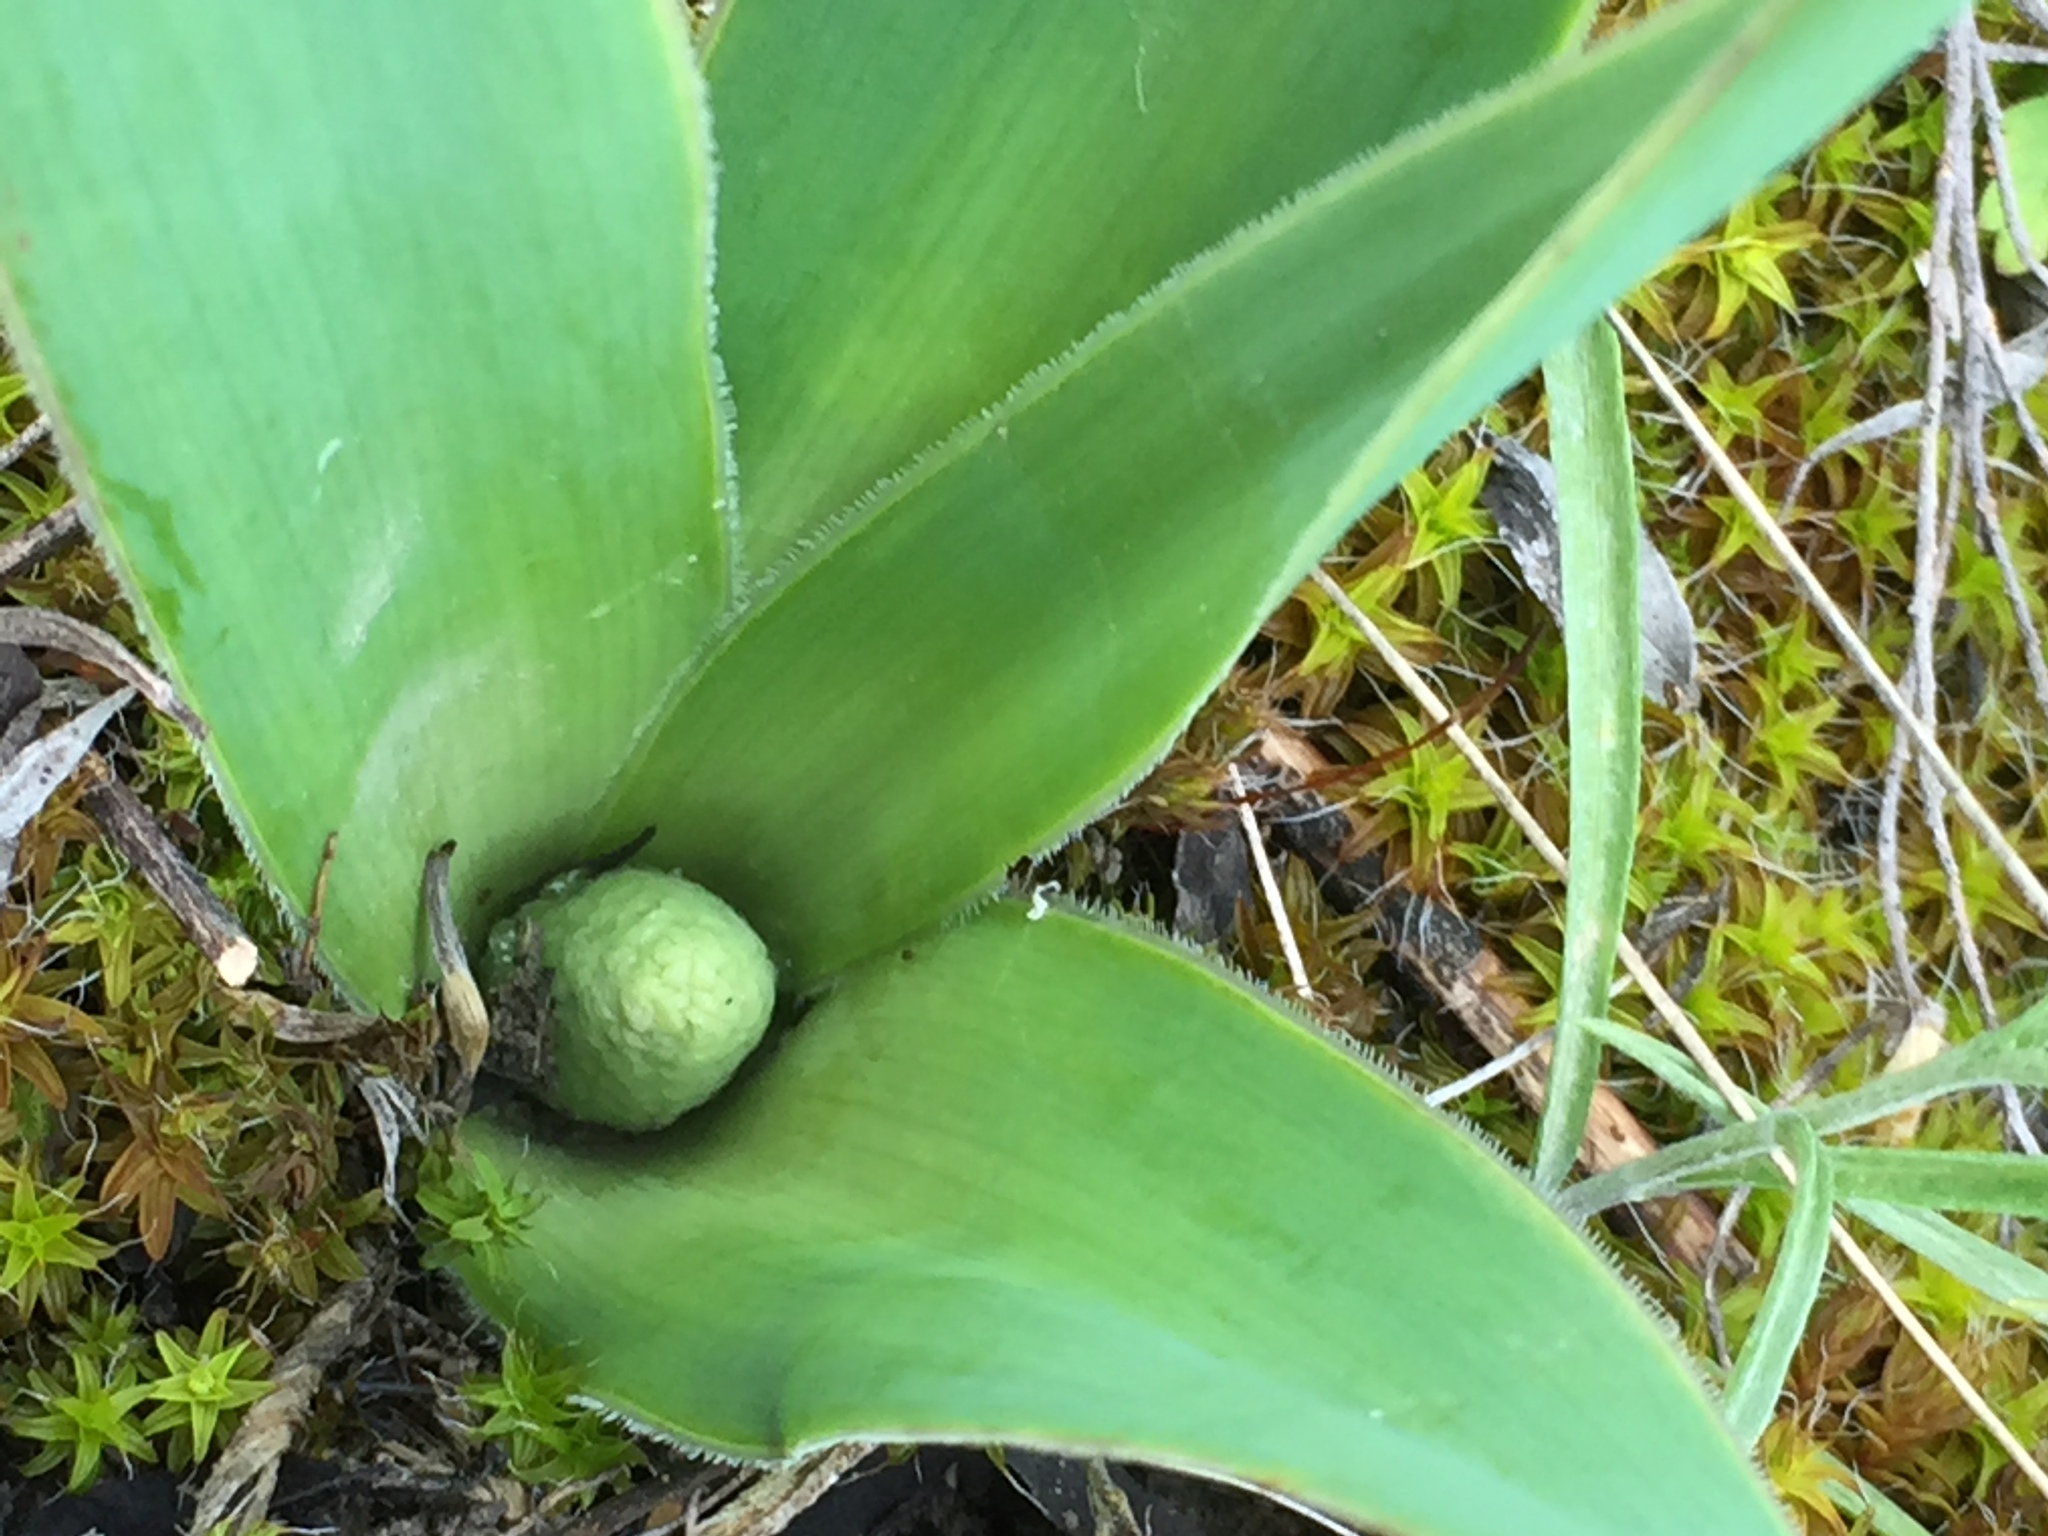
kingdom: Plantae
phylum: Tracheophyta
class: Liliopsida
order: Asparagales
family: Asparagaceae
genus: Bellevalia
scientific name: Bellevalia speciosa
